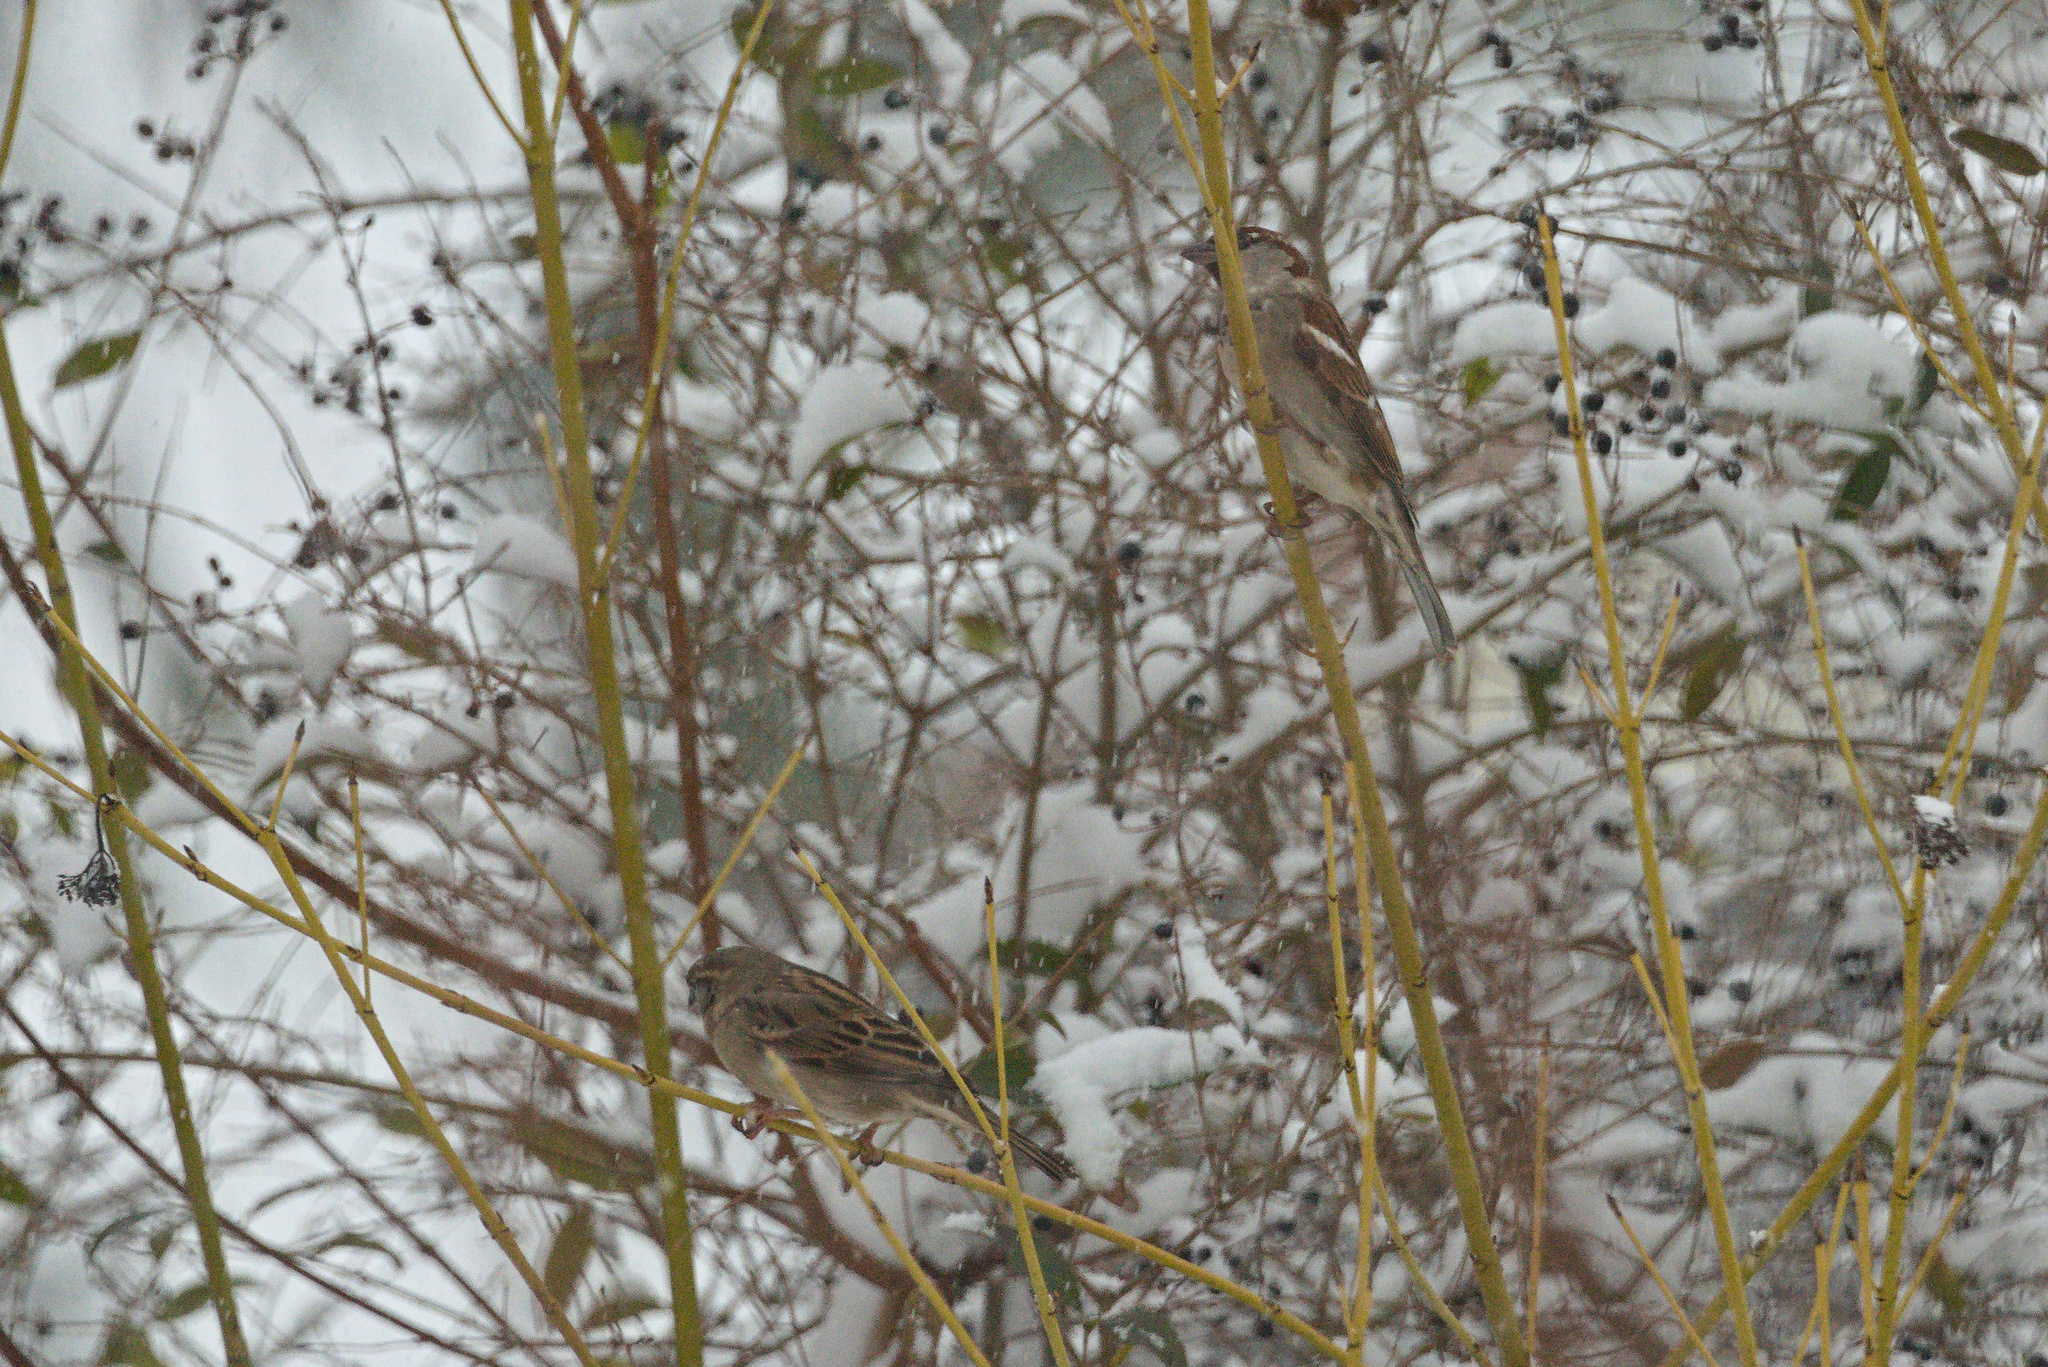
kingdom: Animalia
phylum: Chordata
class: Aves
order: Passeriformes
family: Passeridae
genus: Passer
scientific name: Passer domesticus
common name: House sparrow
